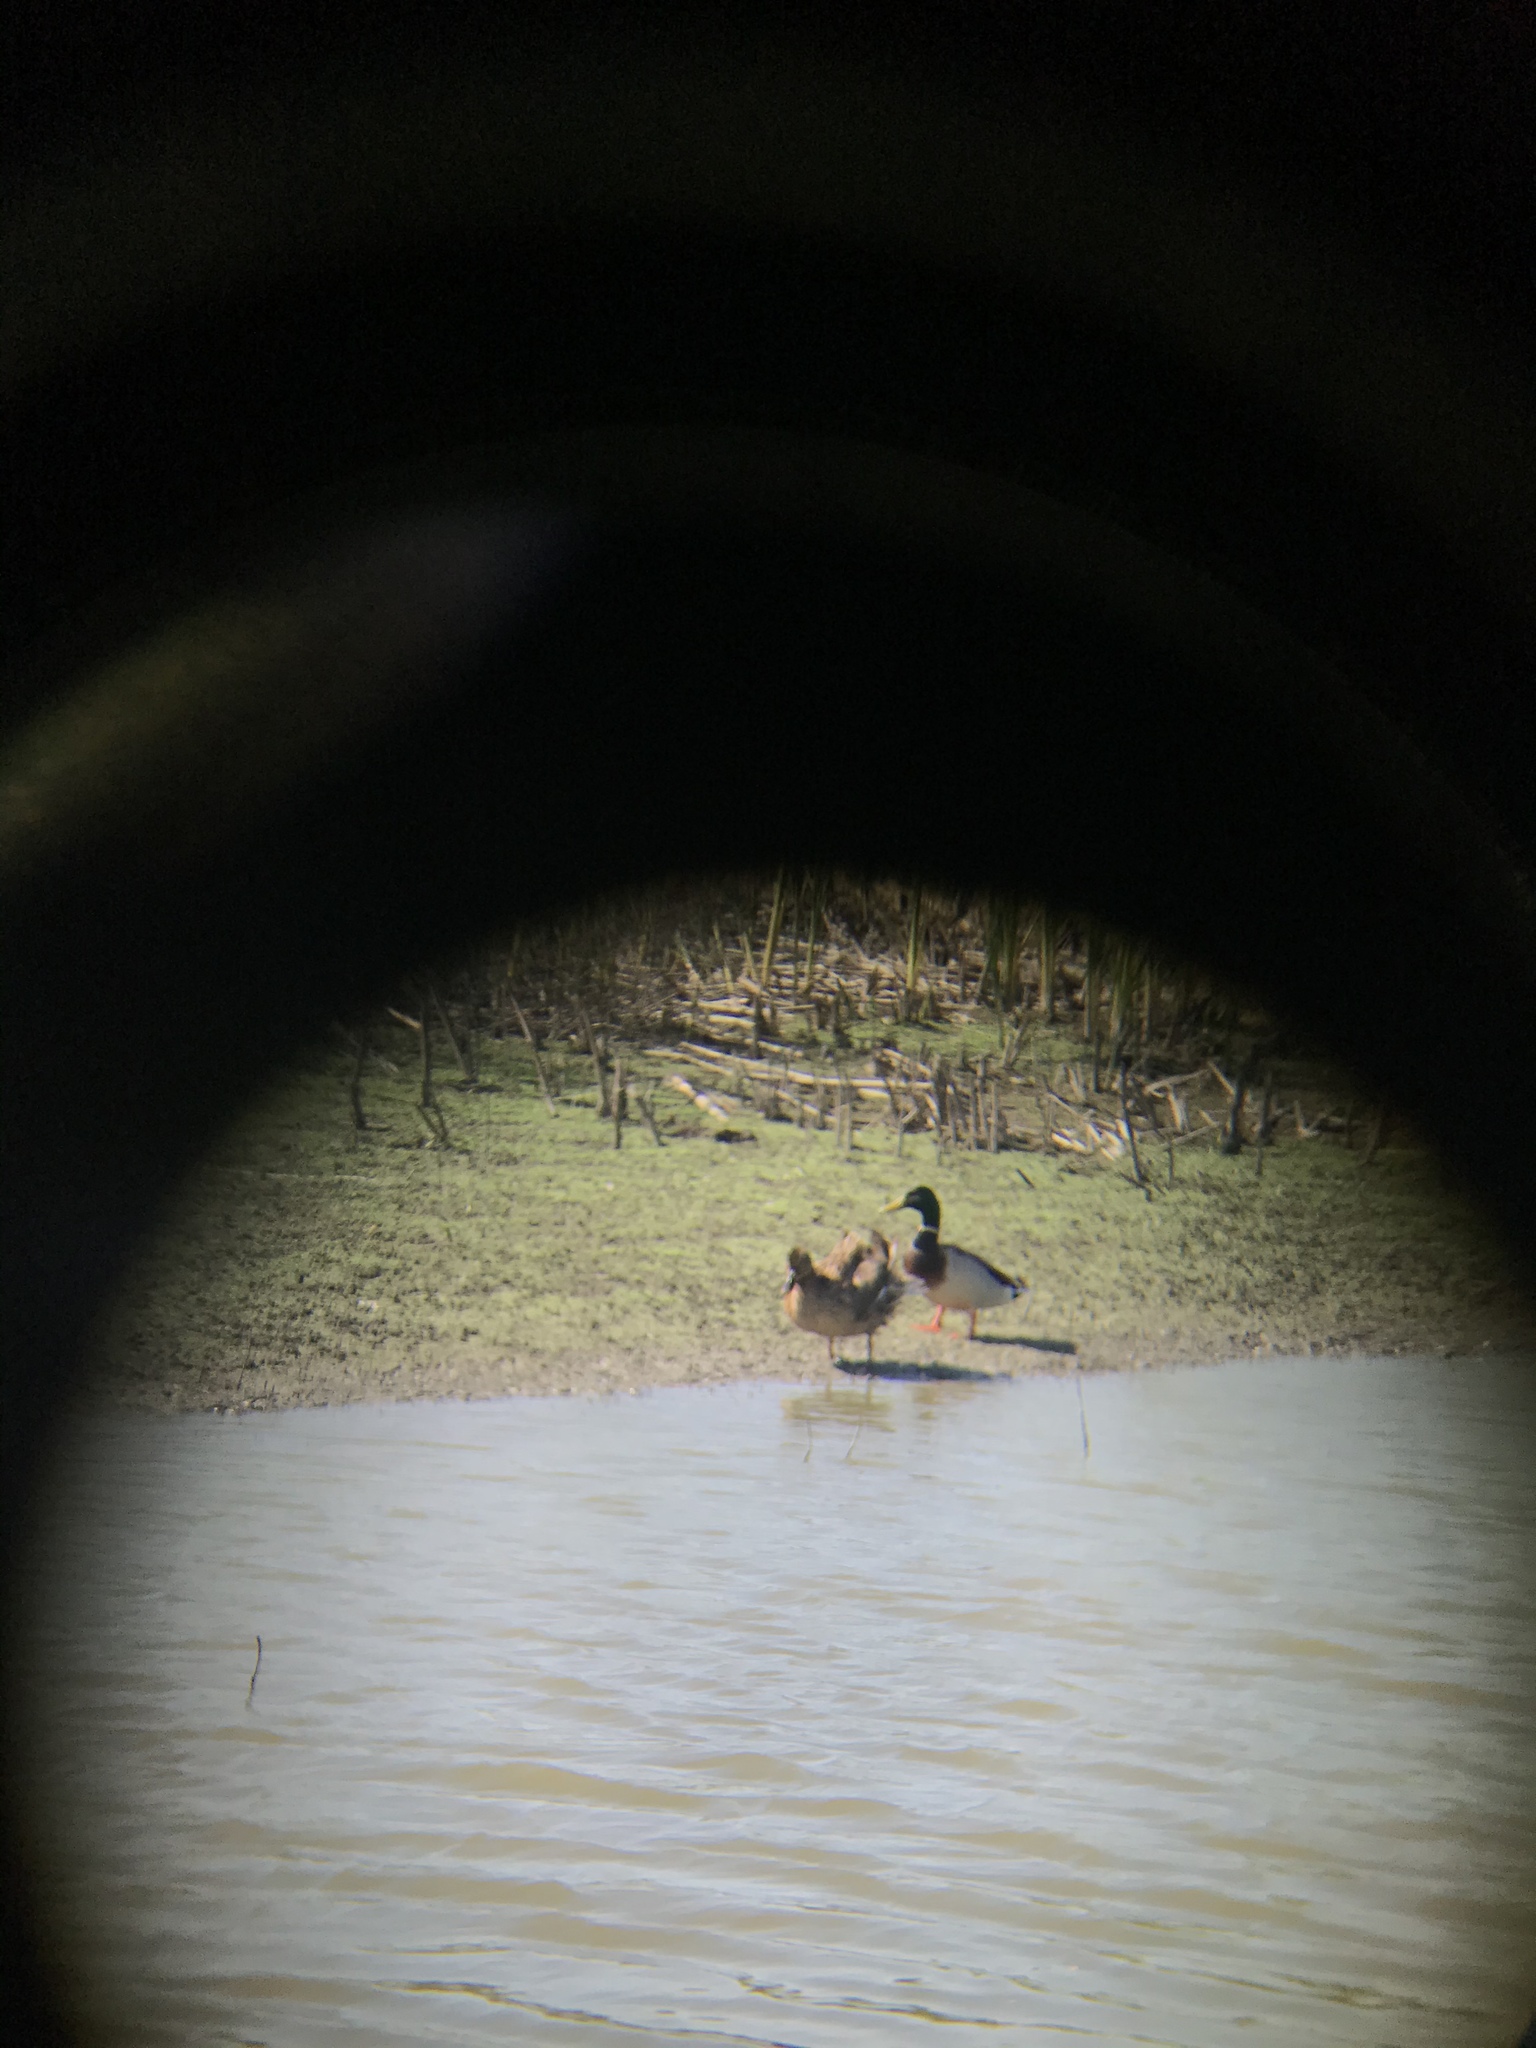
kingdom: Animalia
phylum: Chordata
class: Aves
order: Anseriformes
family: Anatidae
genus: Anas
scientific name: Anas platyrhynchos
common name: Mallard
